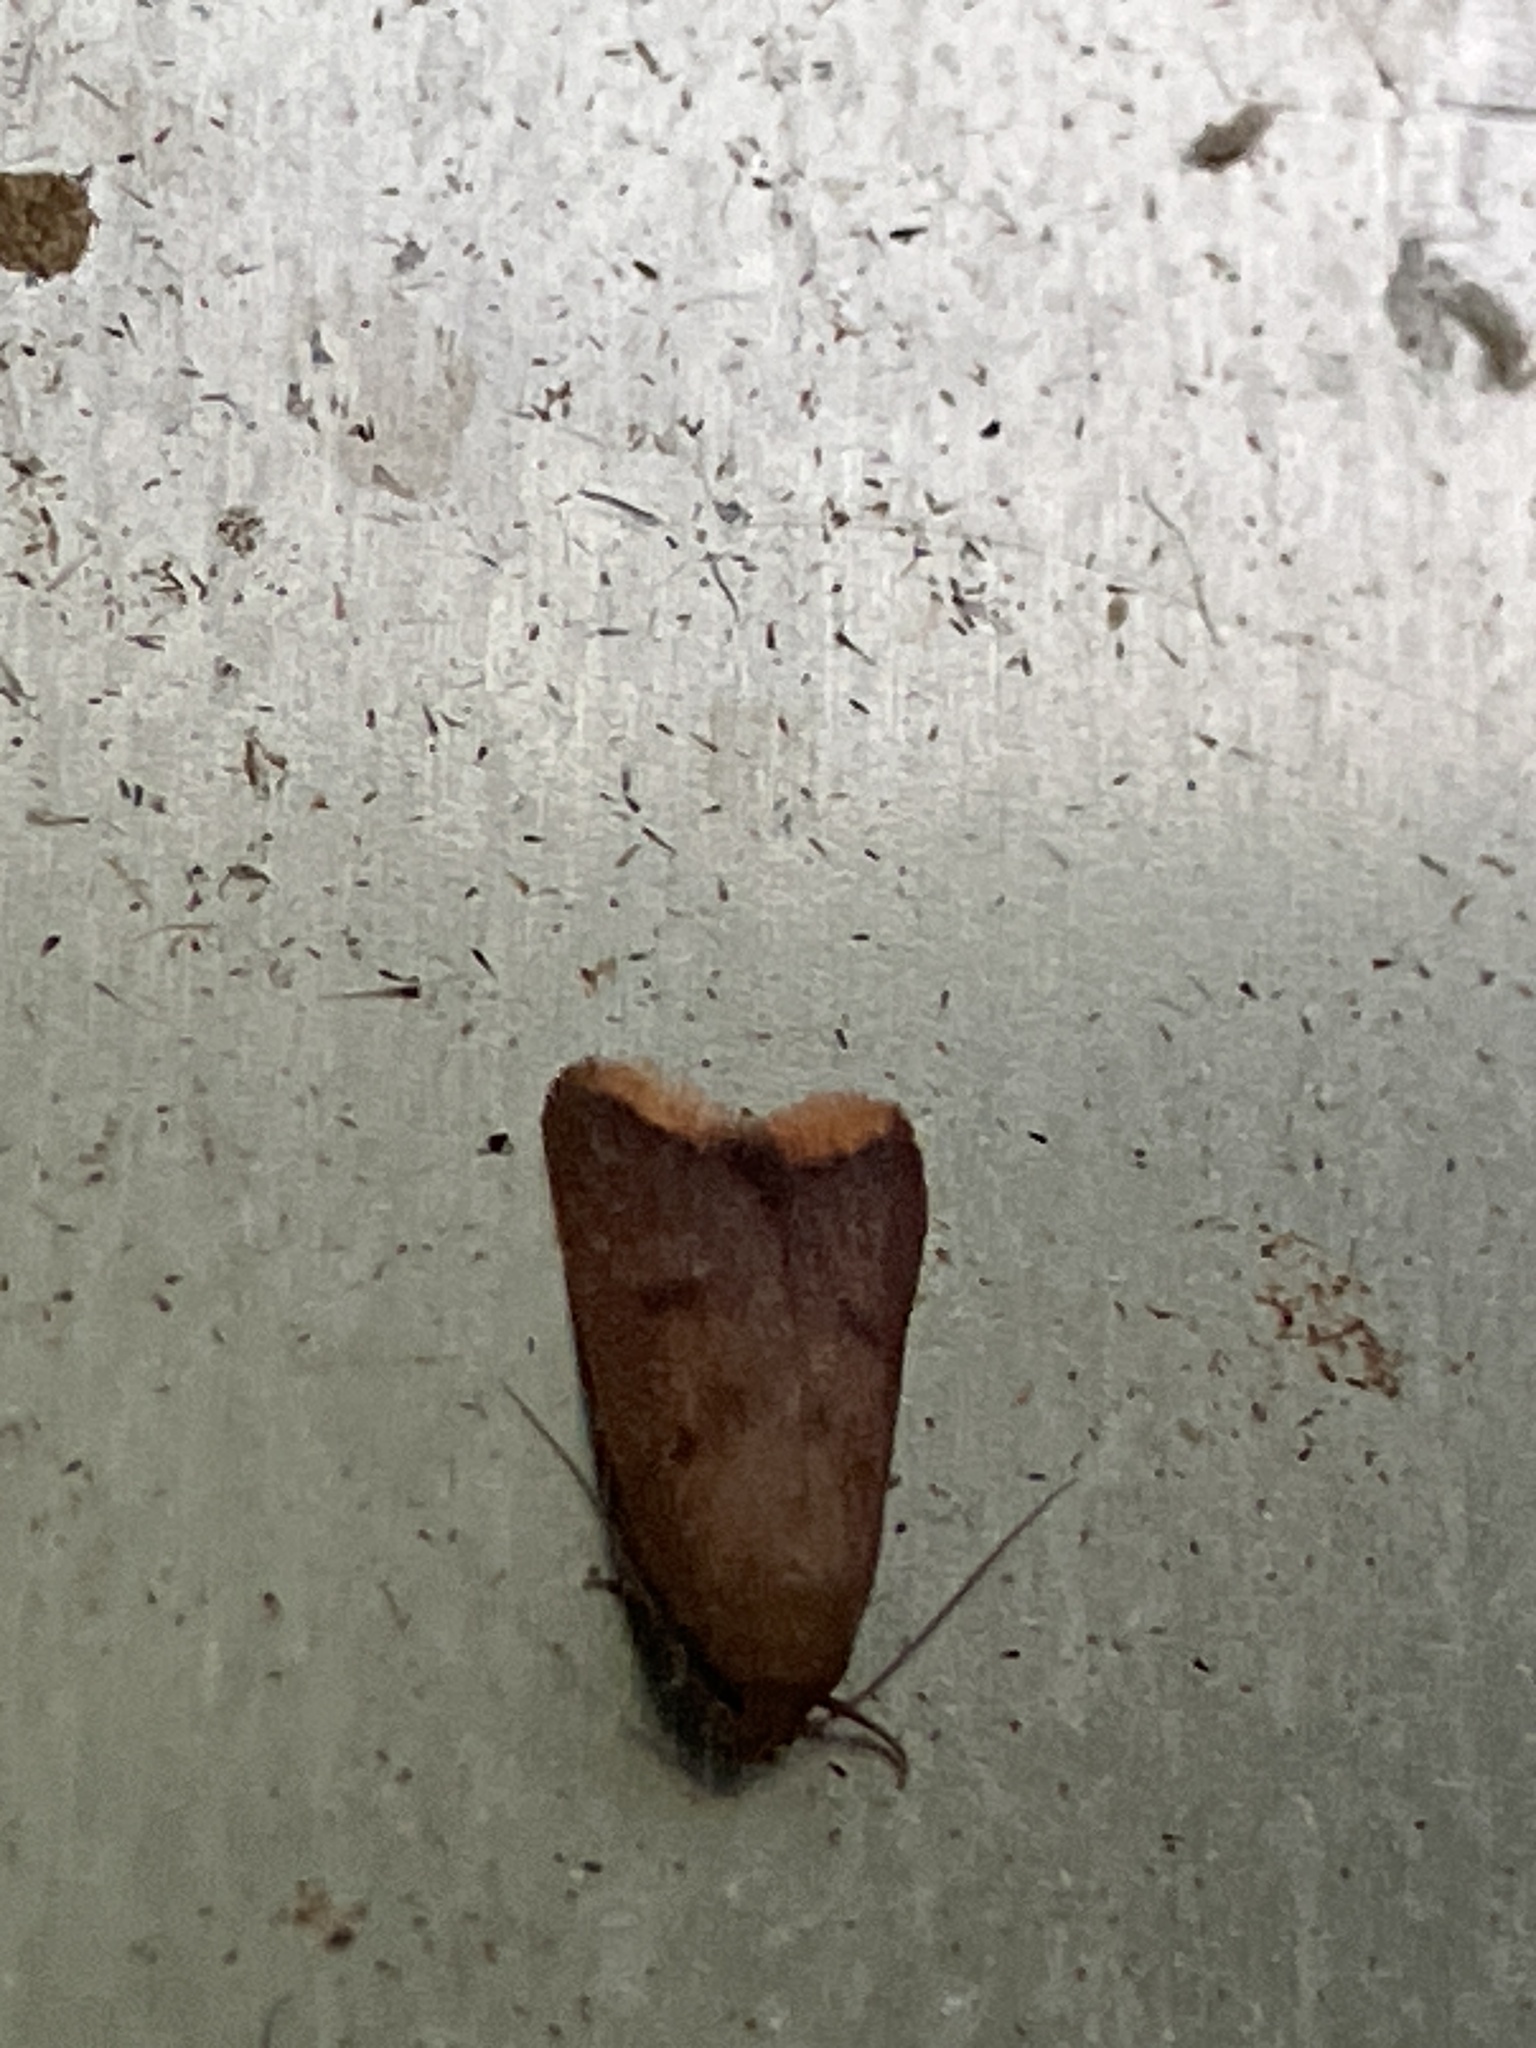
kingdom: Animalia
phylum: Arthropoda
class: Insecta
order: Lepidoptera
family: Oecophoridae
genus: Tachystola
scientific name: Tachystola acroxantha
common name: Ruddy streak
